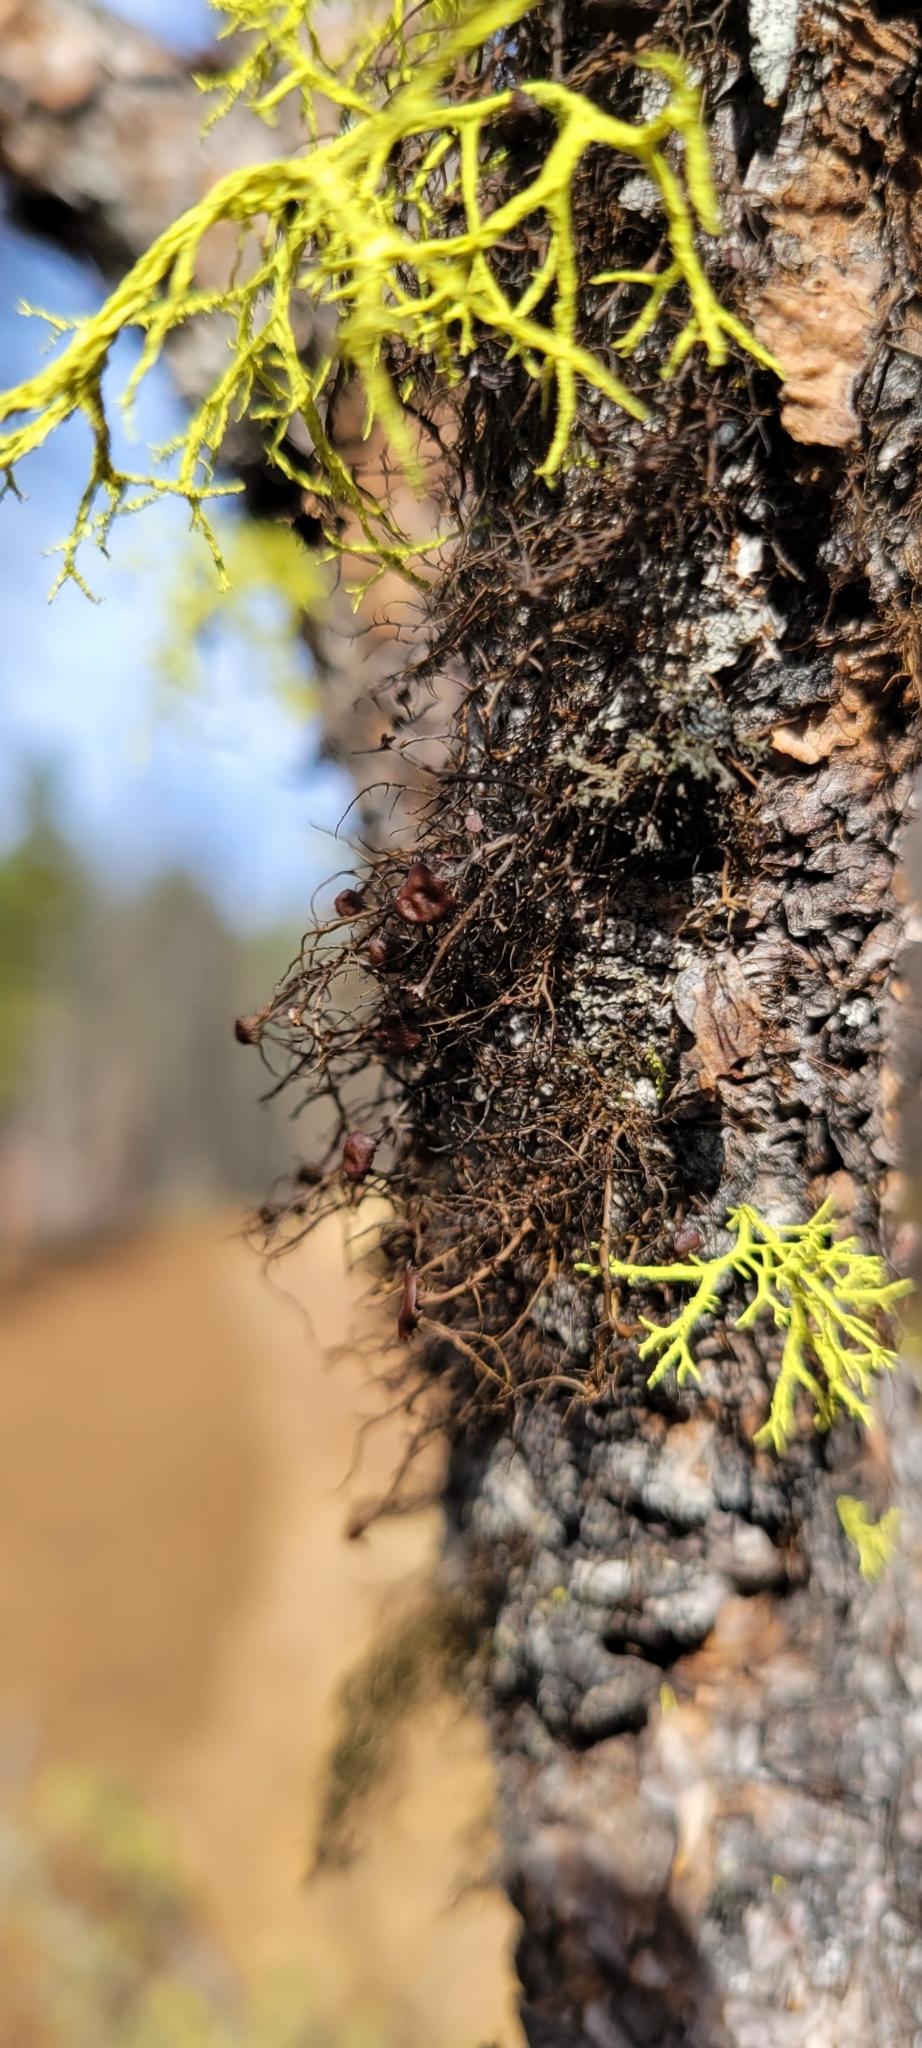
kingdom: Fungi
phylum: Ascomycota
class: Lecanoromycetes
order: Lecanorales
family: Parmeliaceae
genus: Nodobryoria
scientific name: Nodobryoria abbreviata
